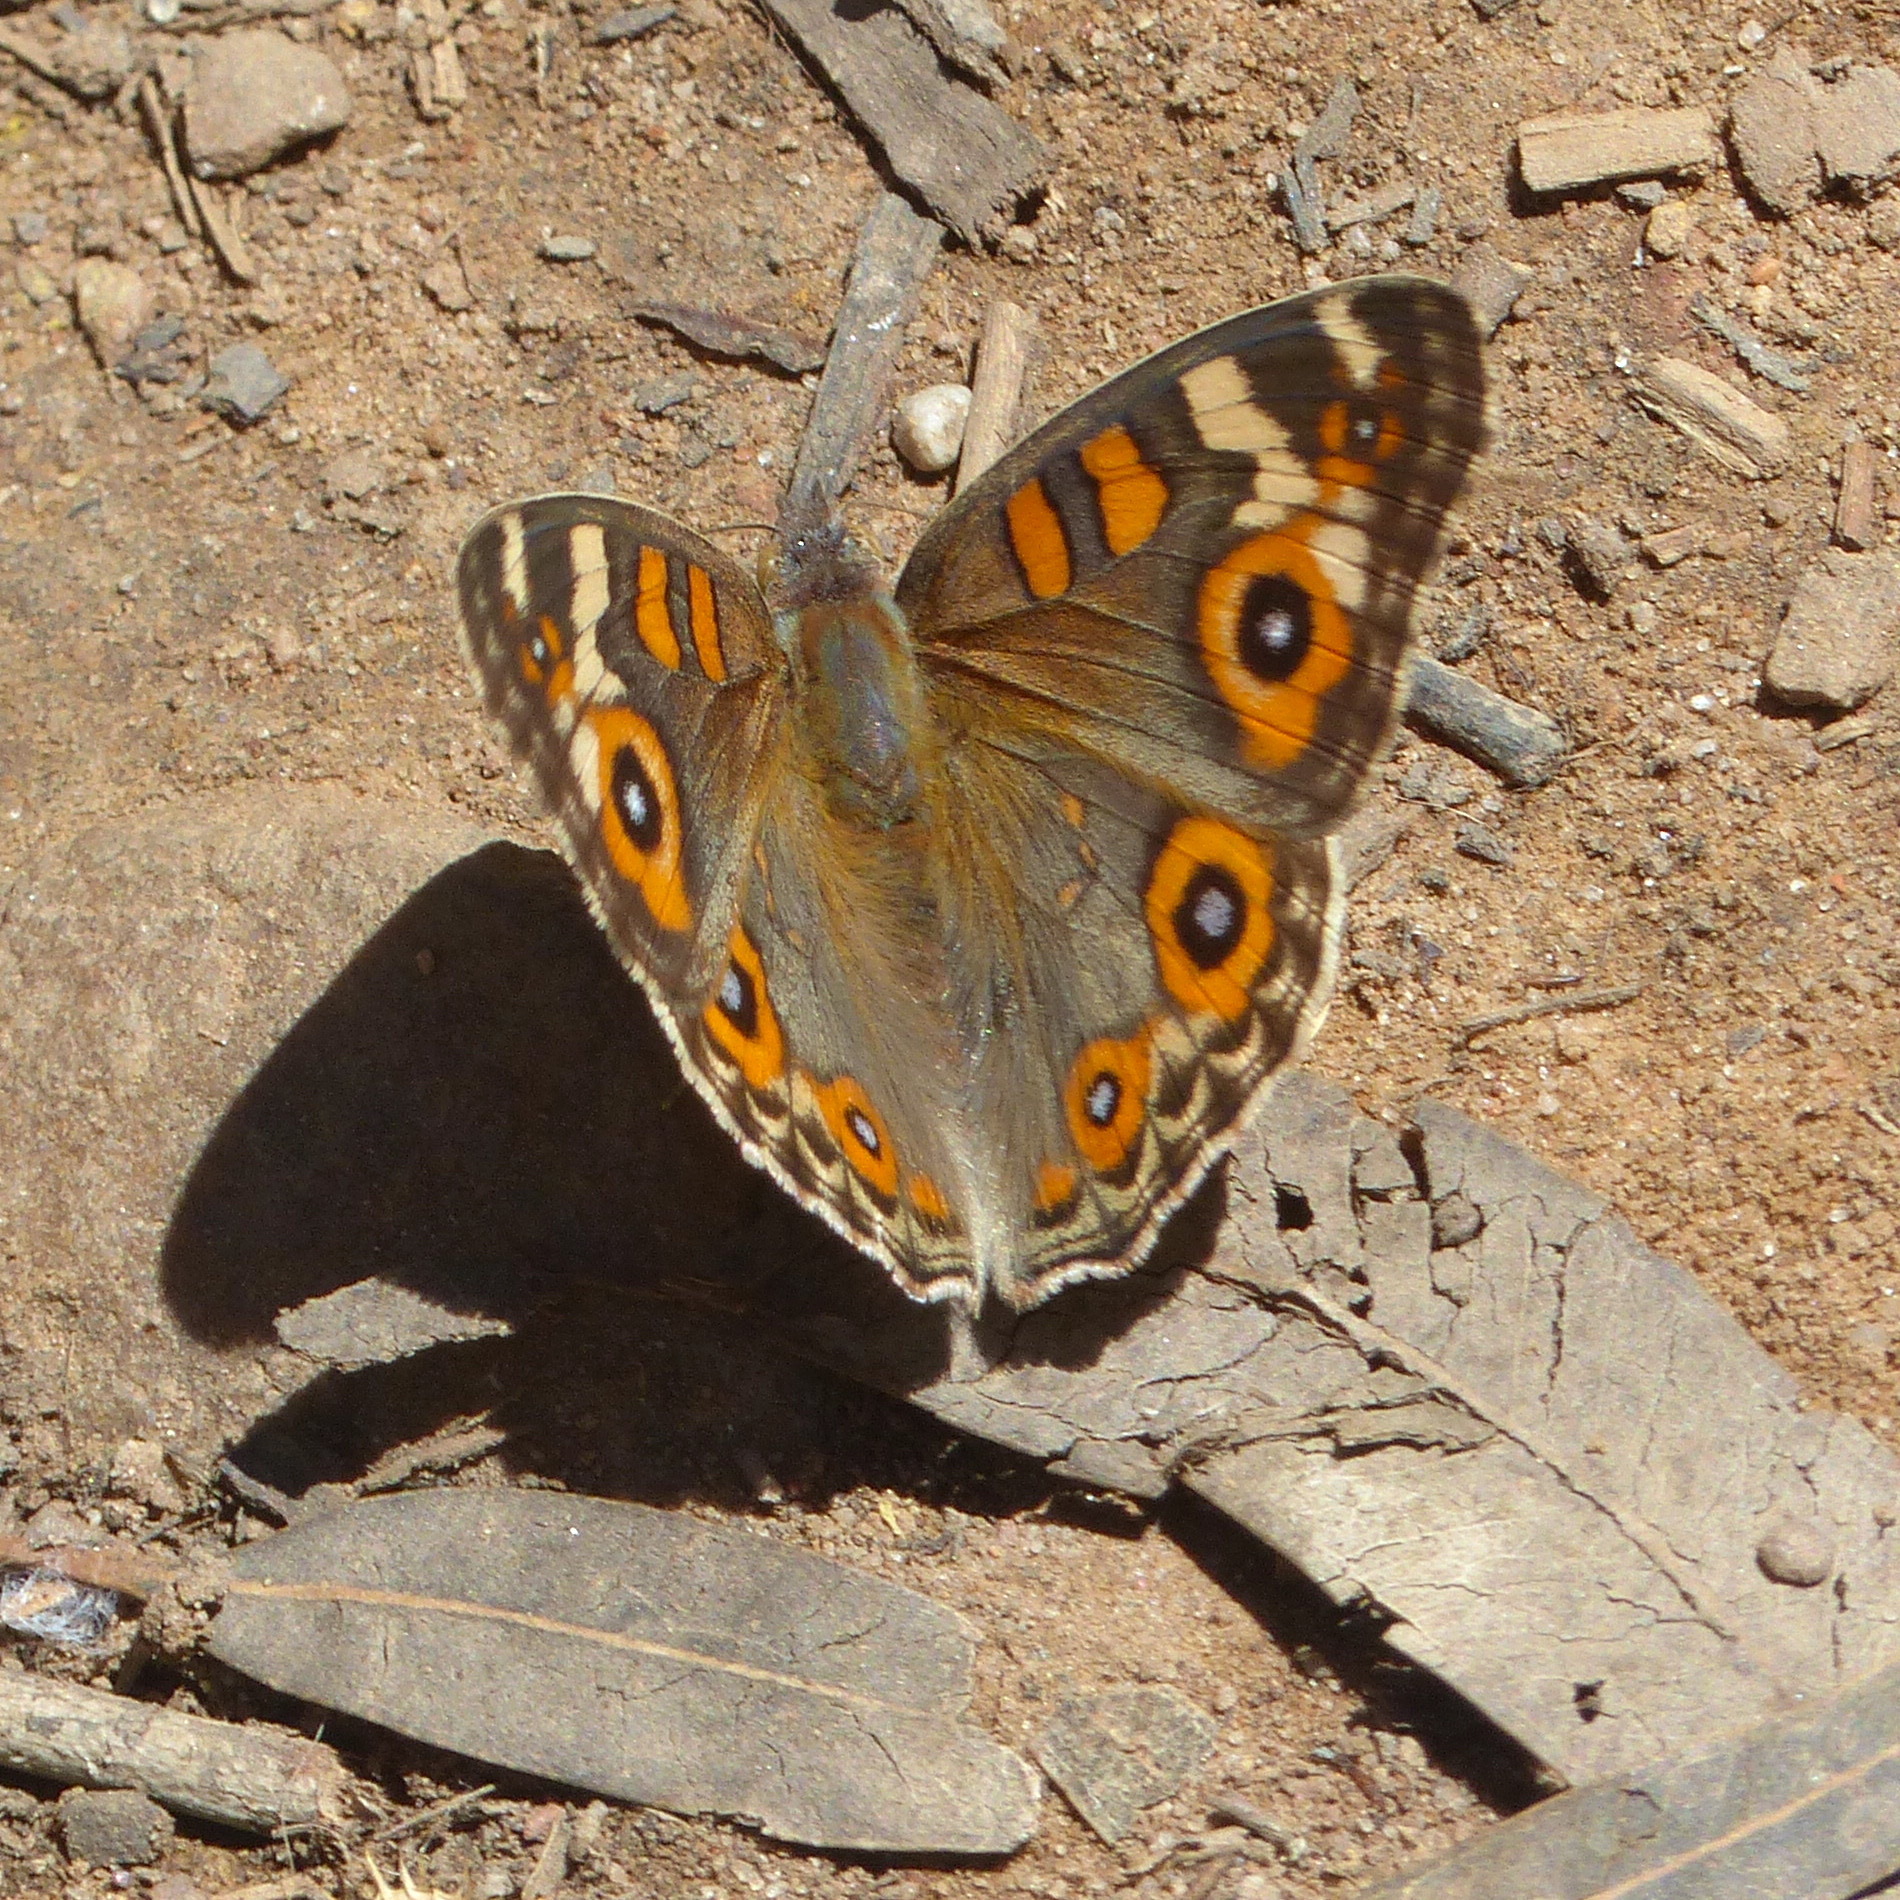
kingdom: Animalia
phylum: Arthropoda
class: Insecta
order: Lepidoptera
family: Nymphalidae
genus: Junonia
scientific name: Junonia villida
